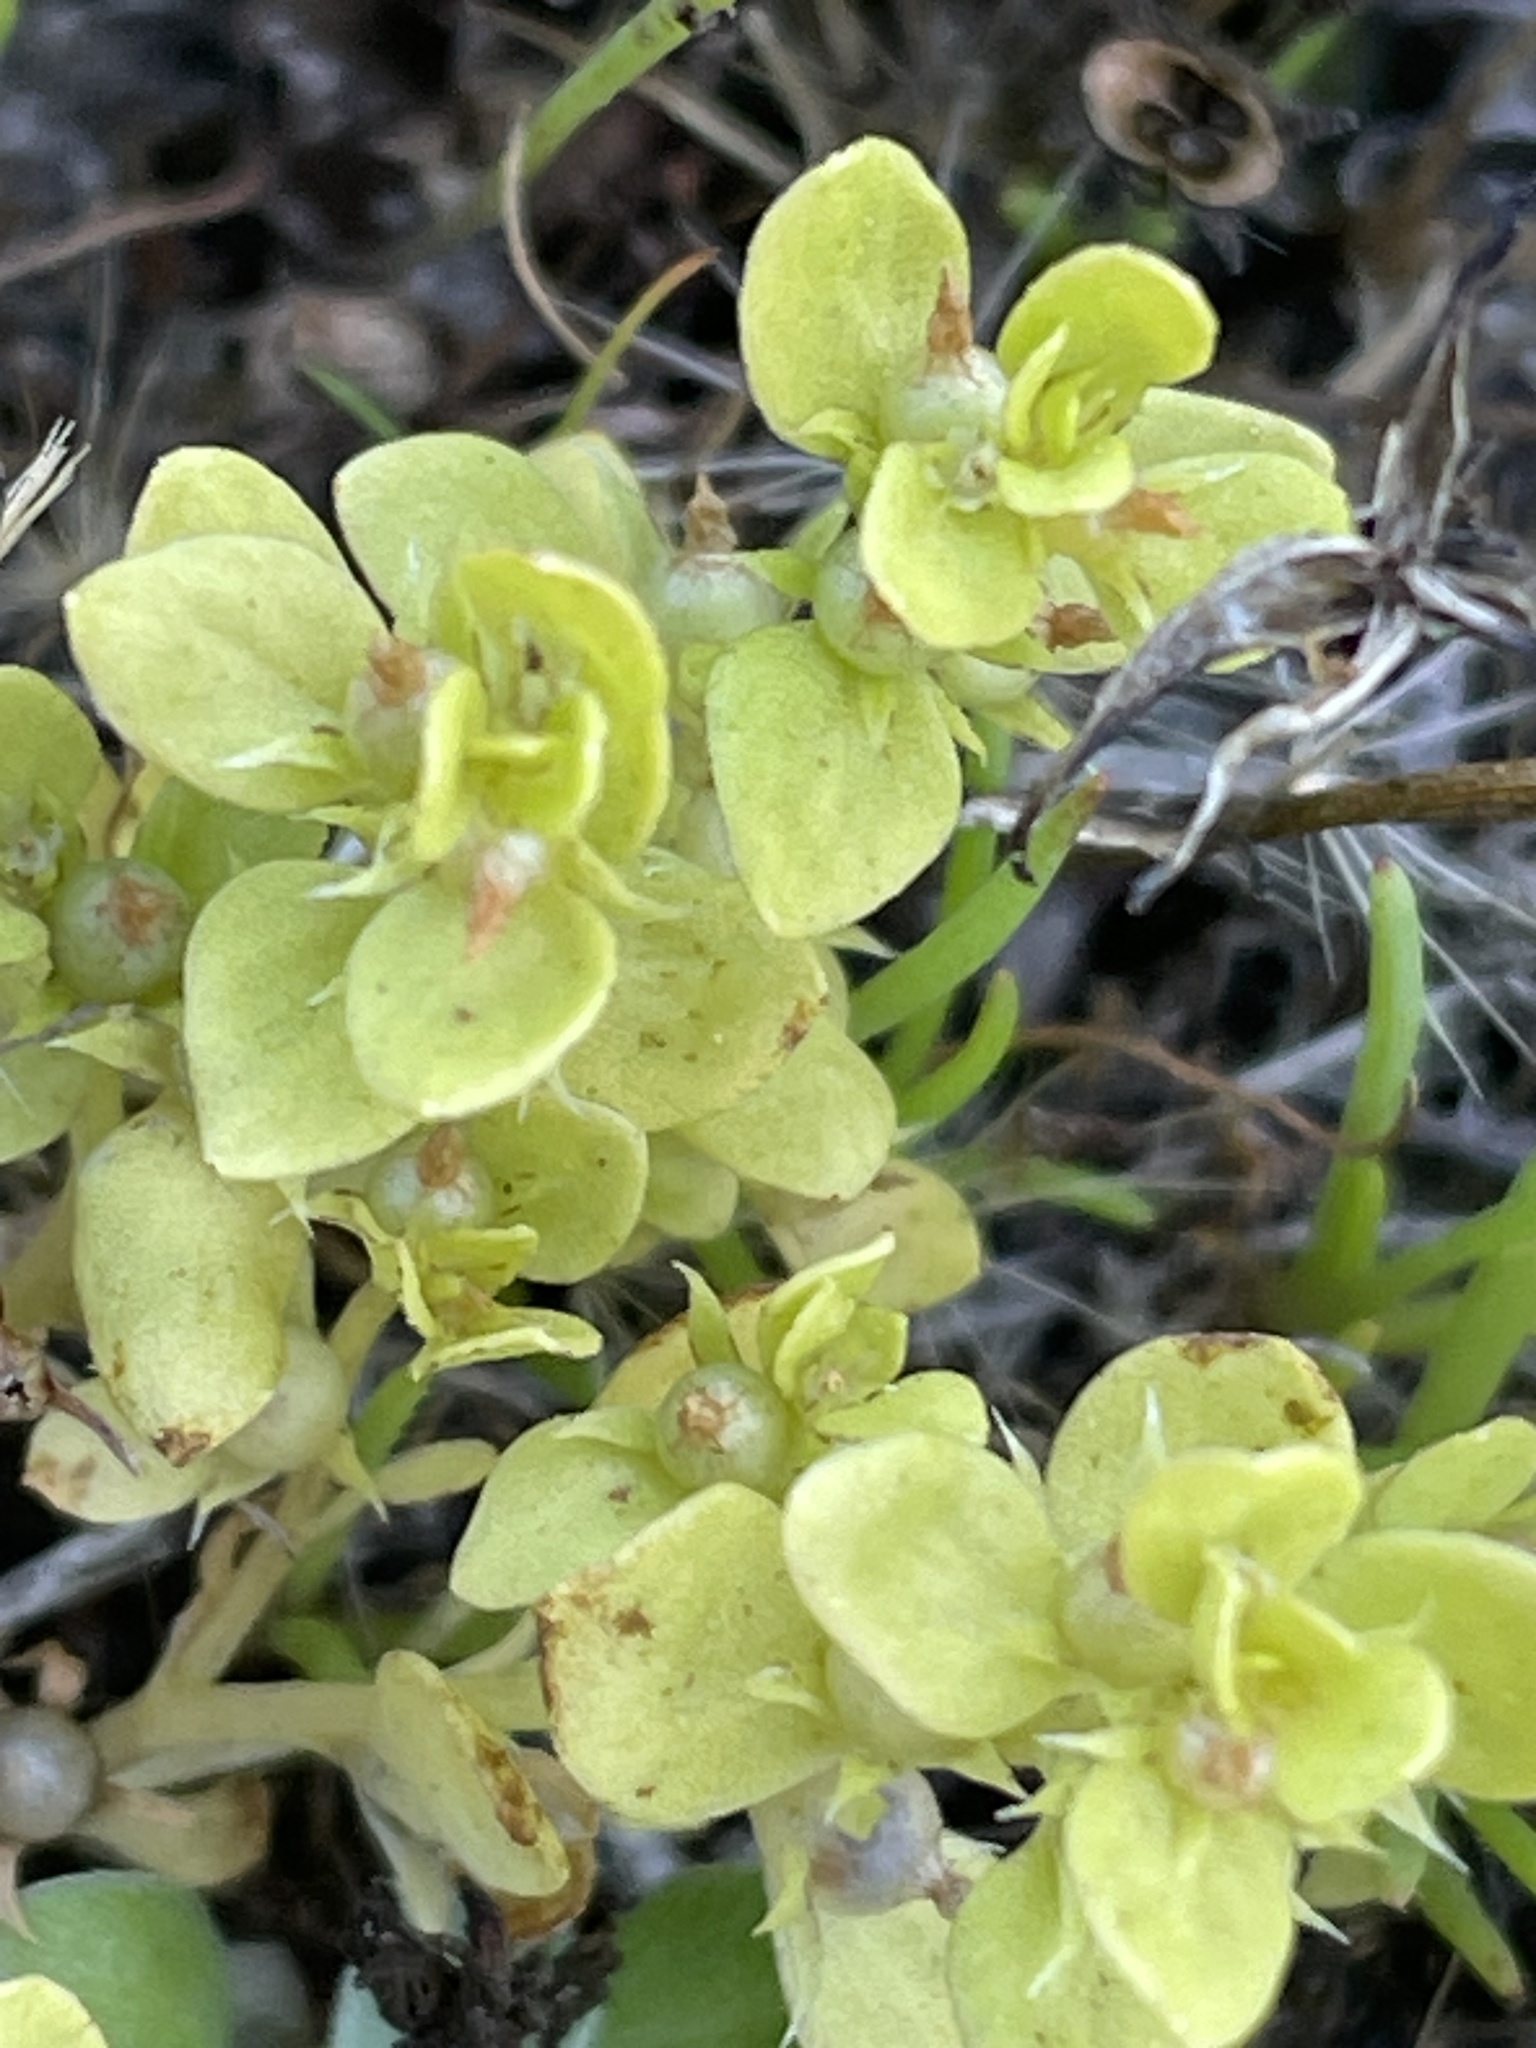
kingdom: Plantae
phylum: Tracheophyta
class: Magnoliopsida
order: Ericales
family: Primulaceae
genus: Lysimachia
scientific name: Lysimachia minima
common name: Chaffweed
